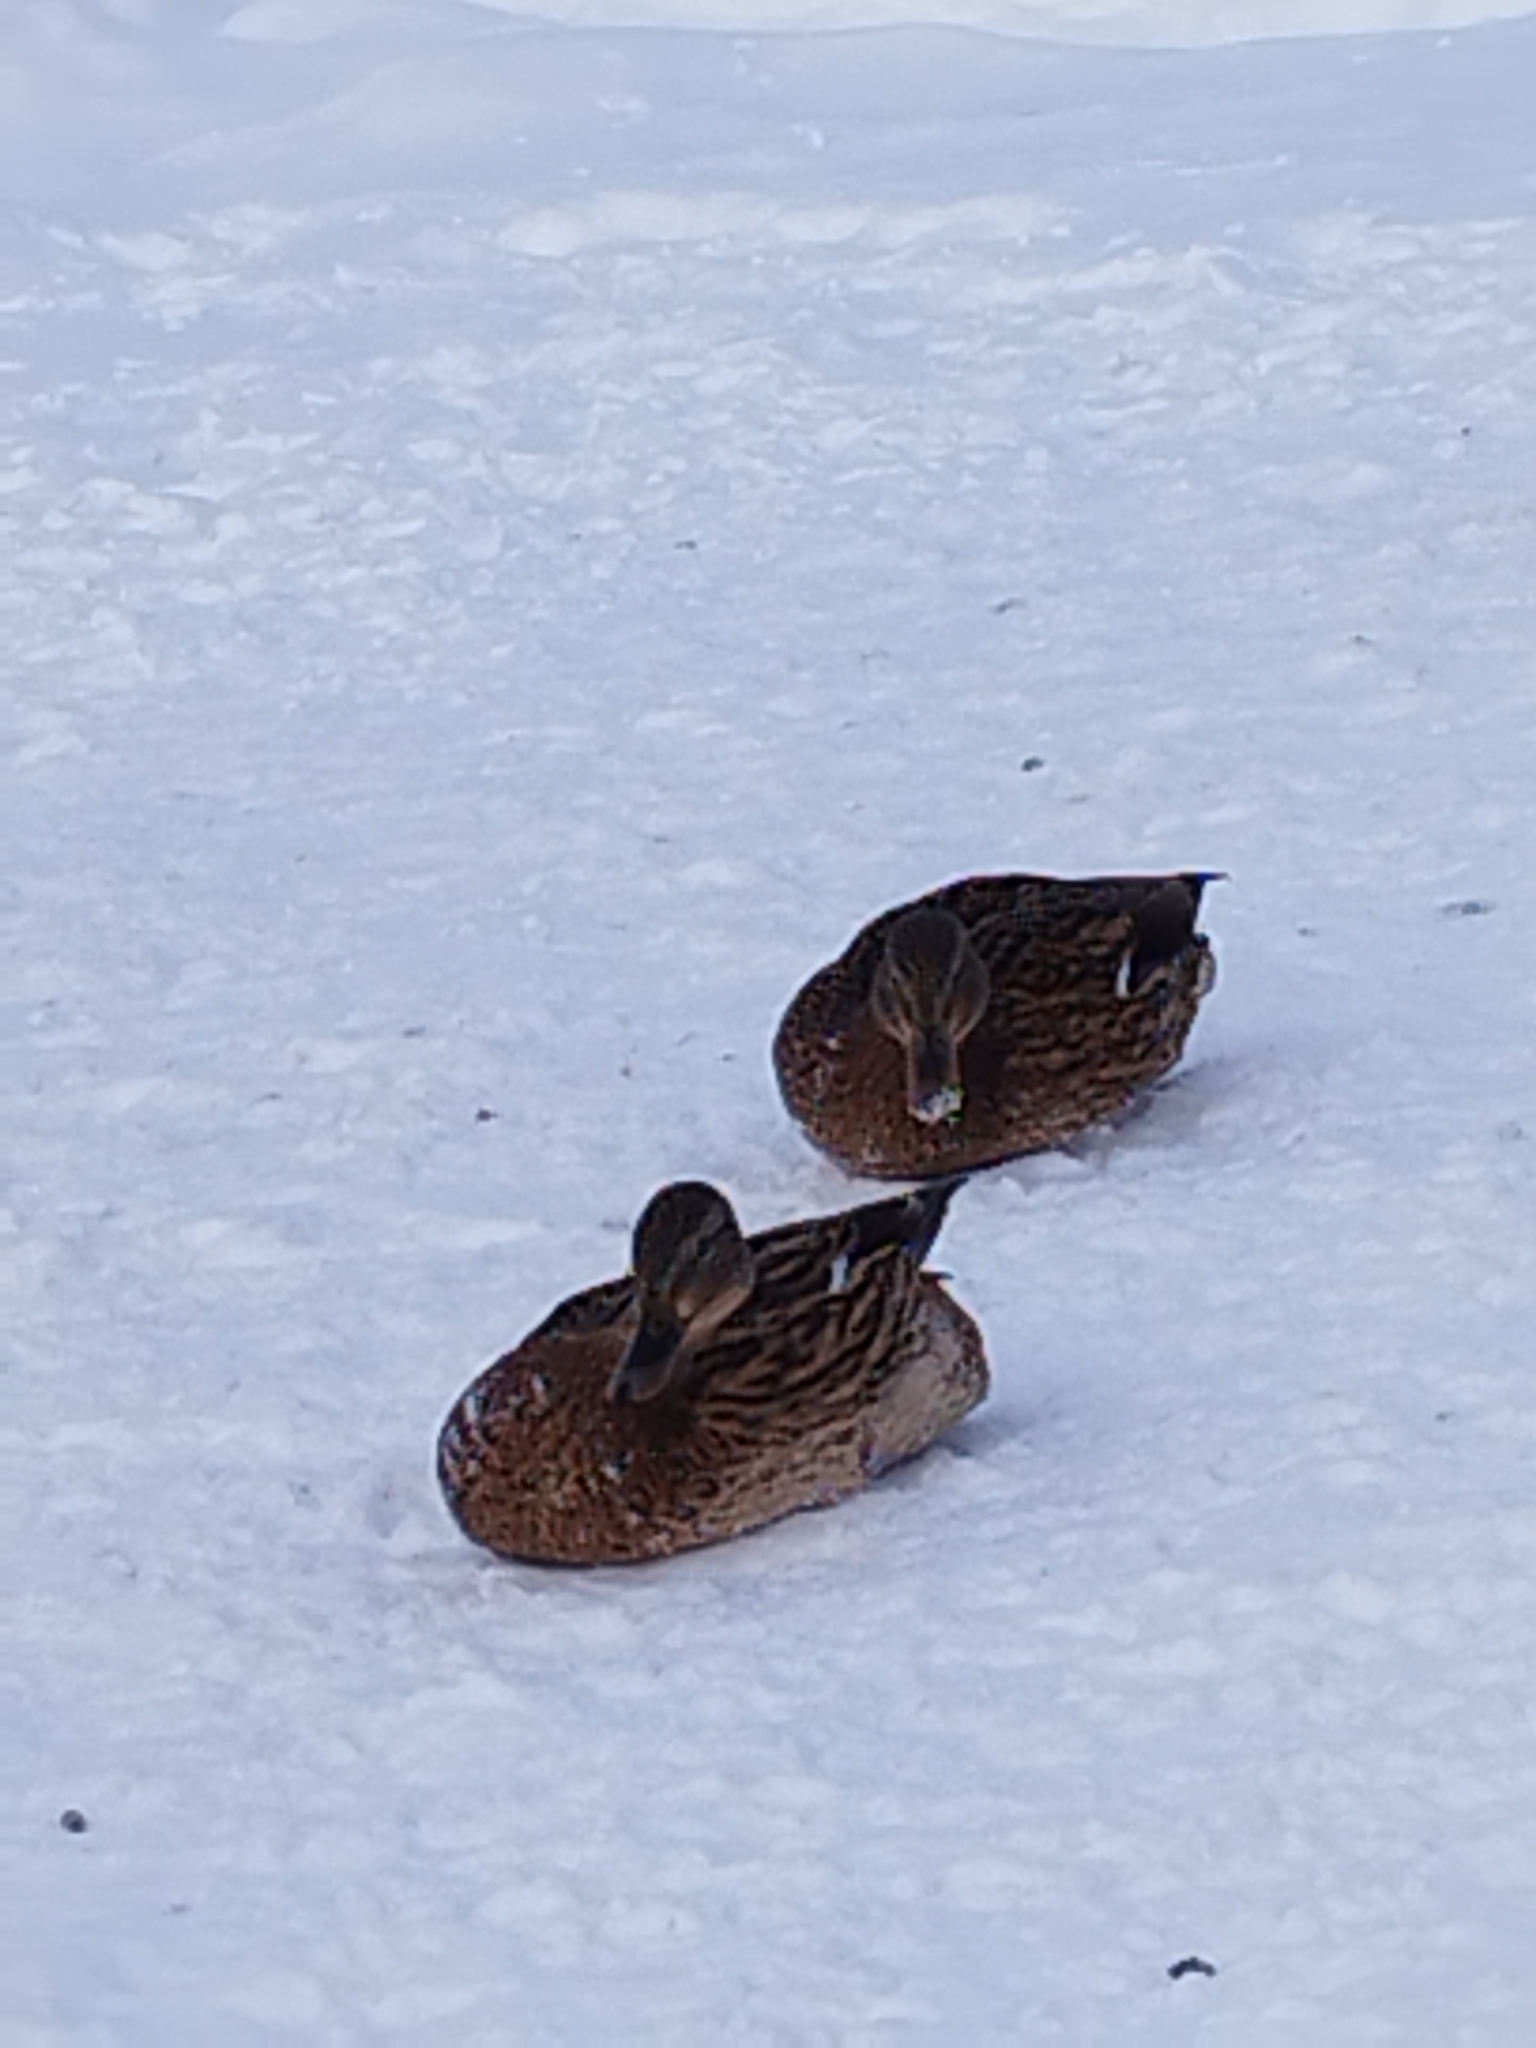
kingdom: Animalia
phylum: Chordata
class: Aves
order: Anseriformes
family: Anatidae
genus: Anas
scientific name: Anas platyrhynchos
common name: Mallard
